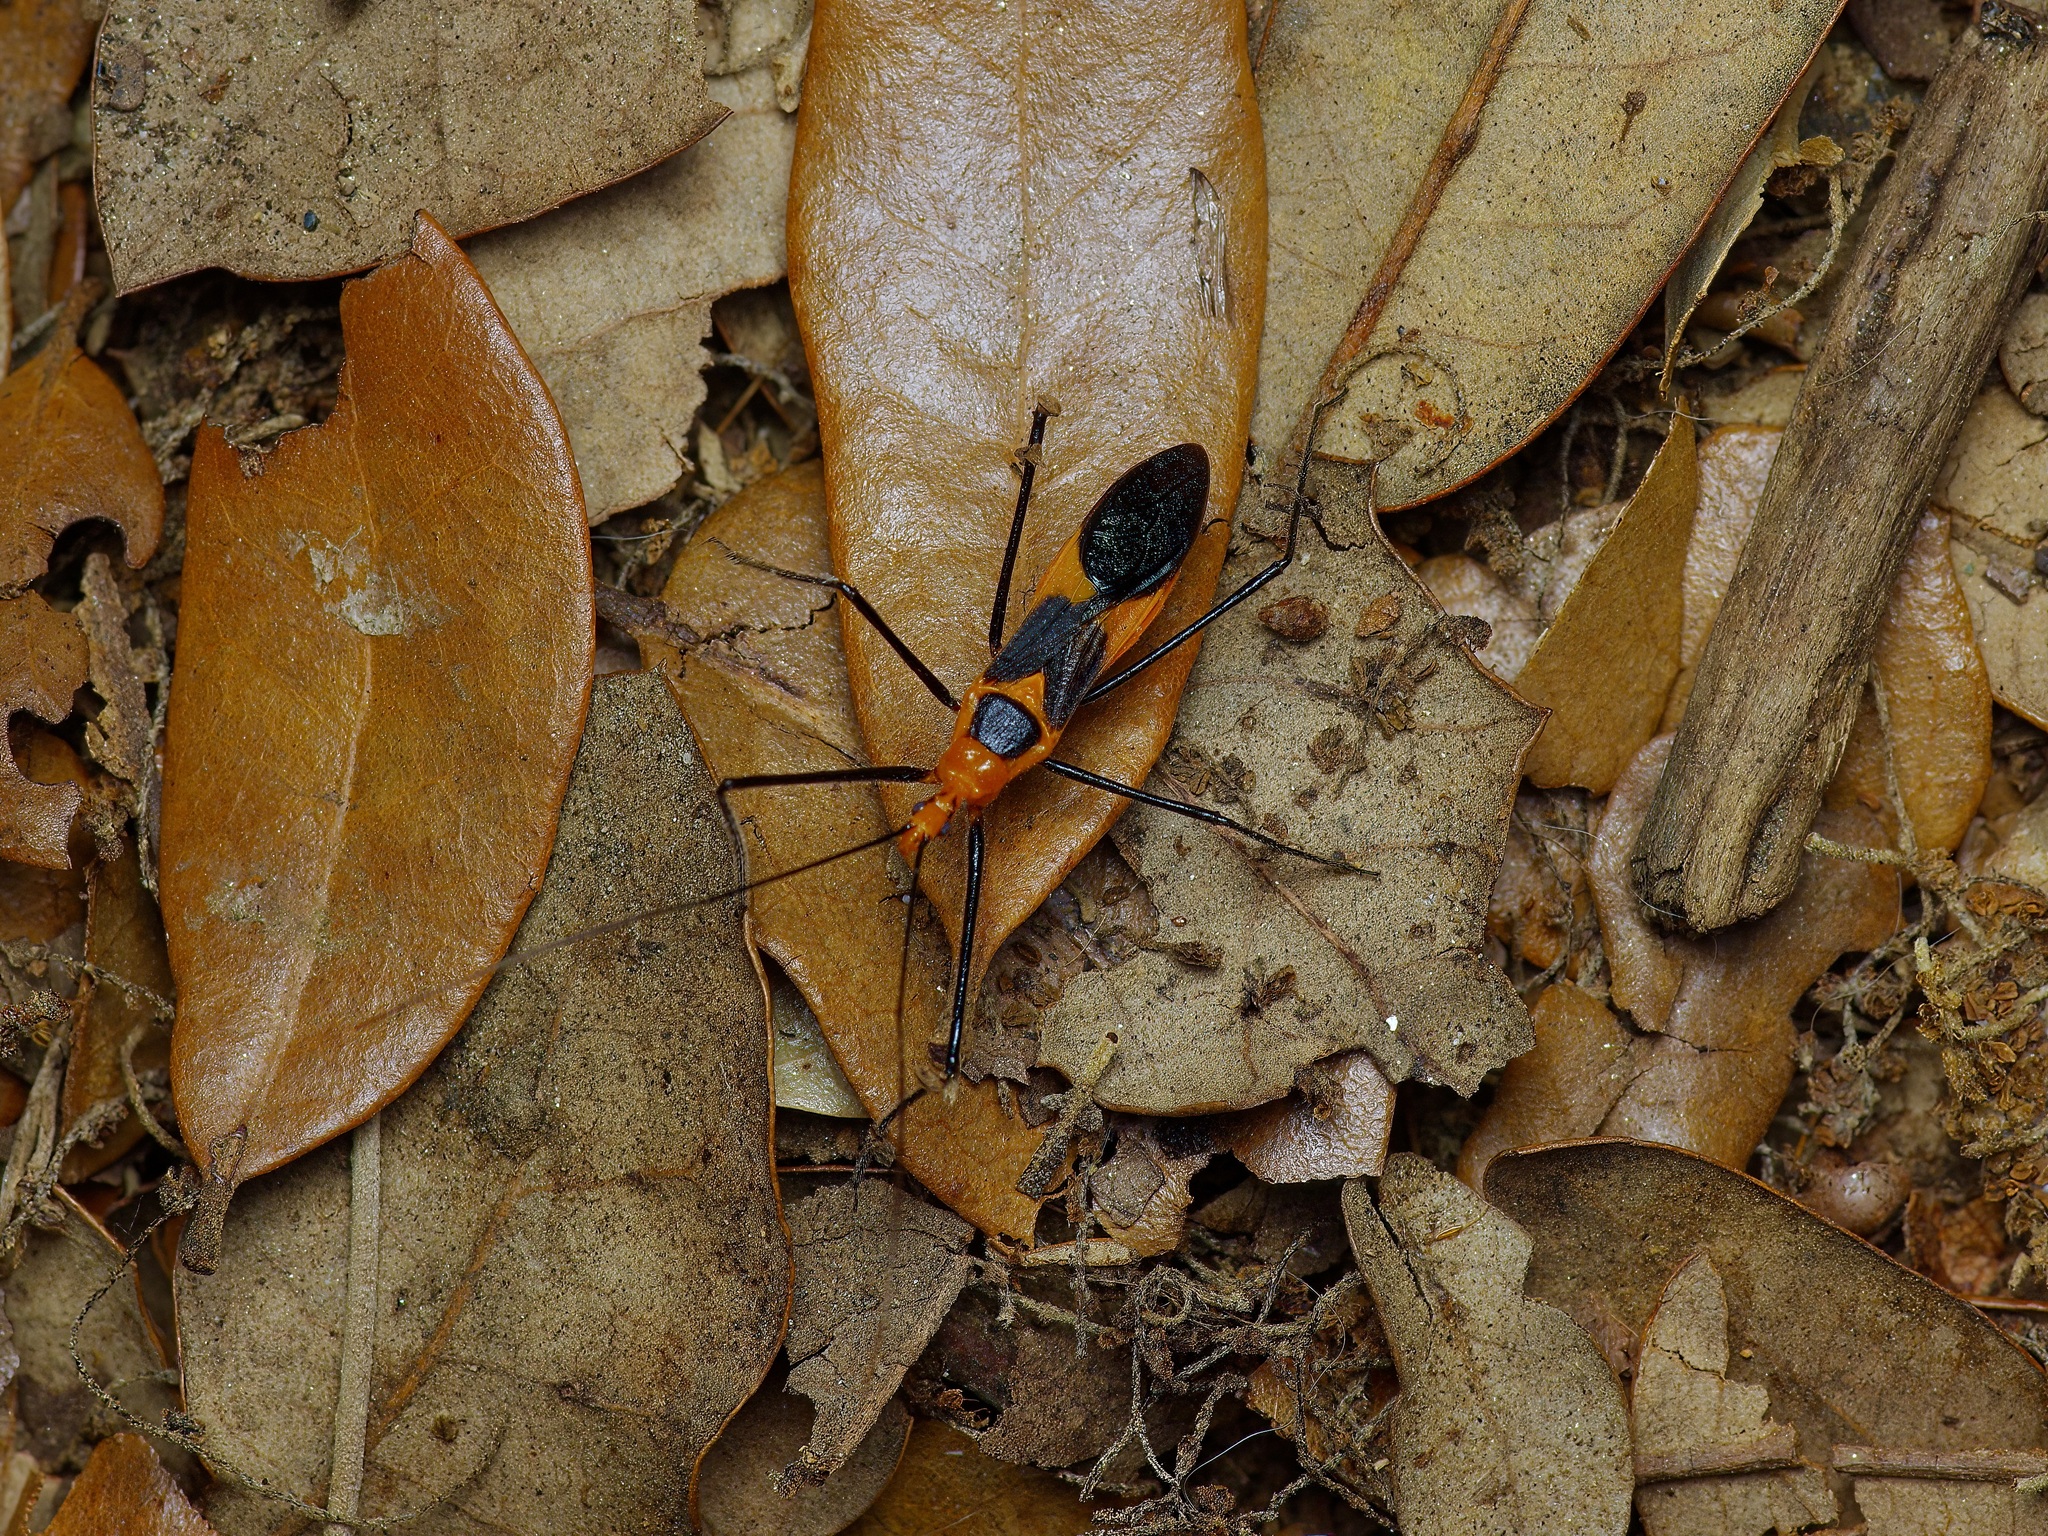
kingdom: Animalia
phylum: Arthropoda
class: Insecta
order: Hemiptera
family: Reduviidae
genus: Zelus
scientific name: Zelus longipes
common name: Milkweed assassin bug
